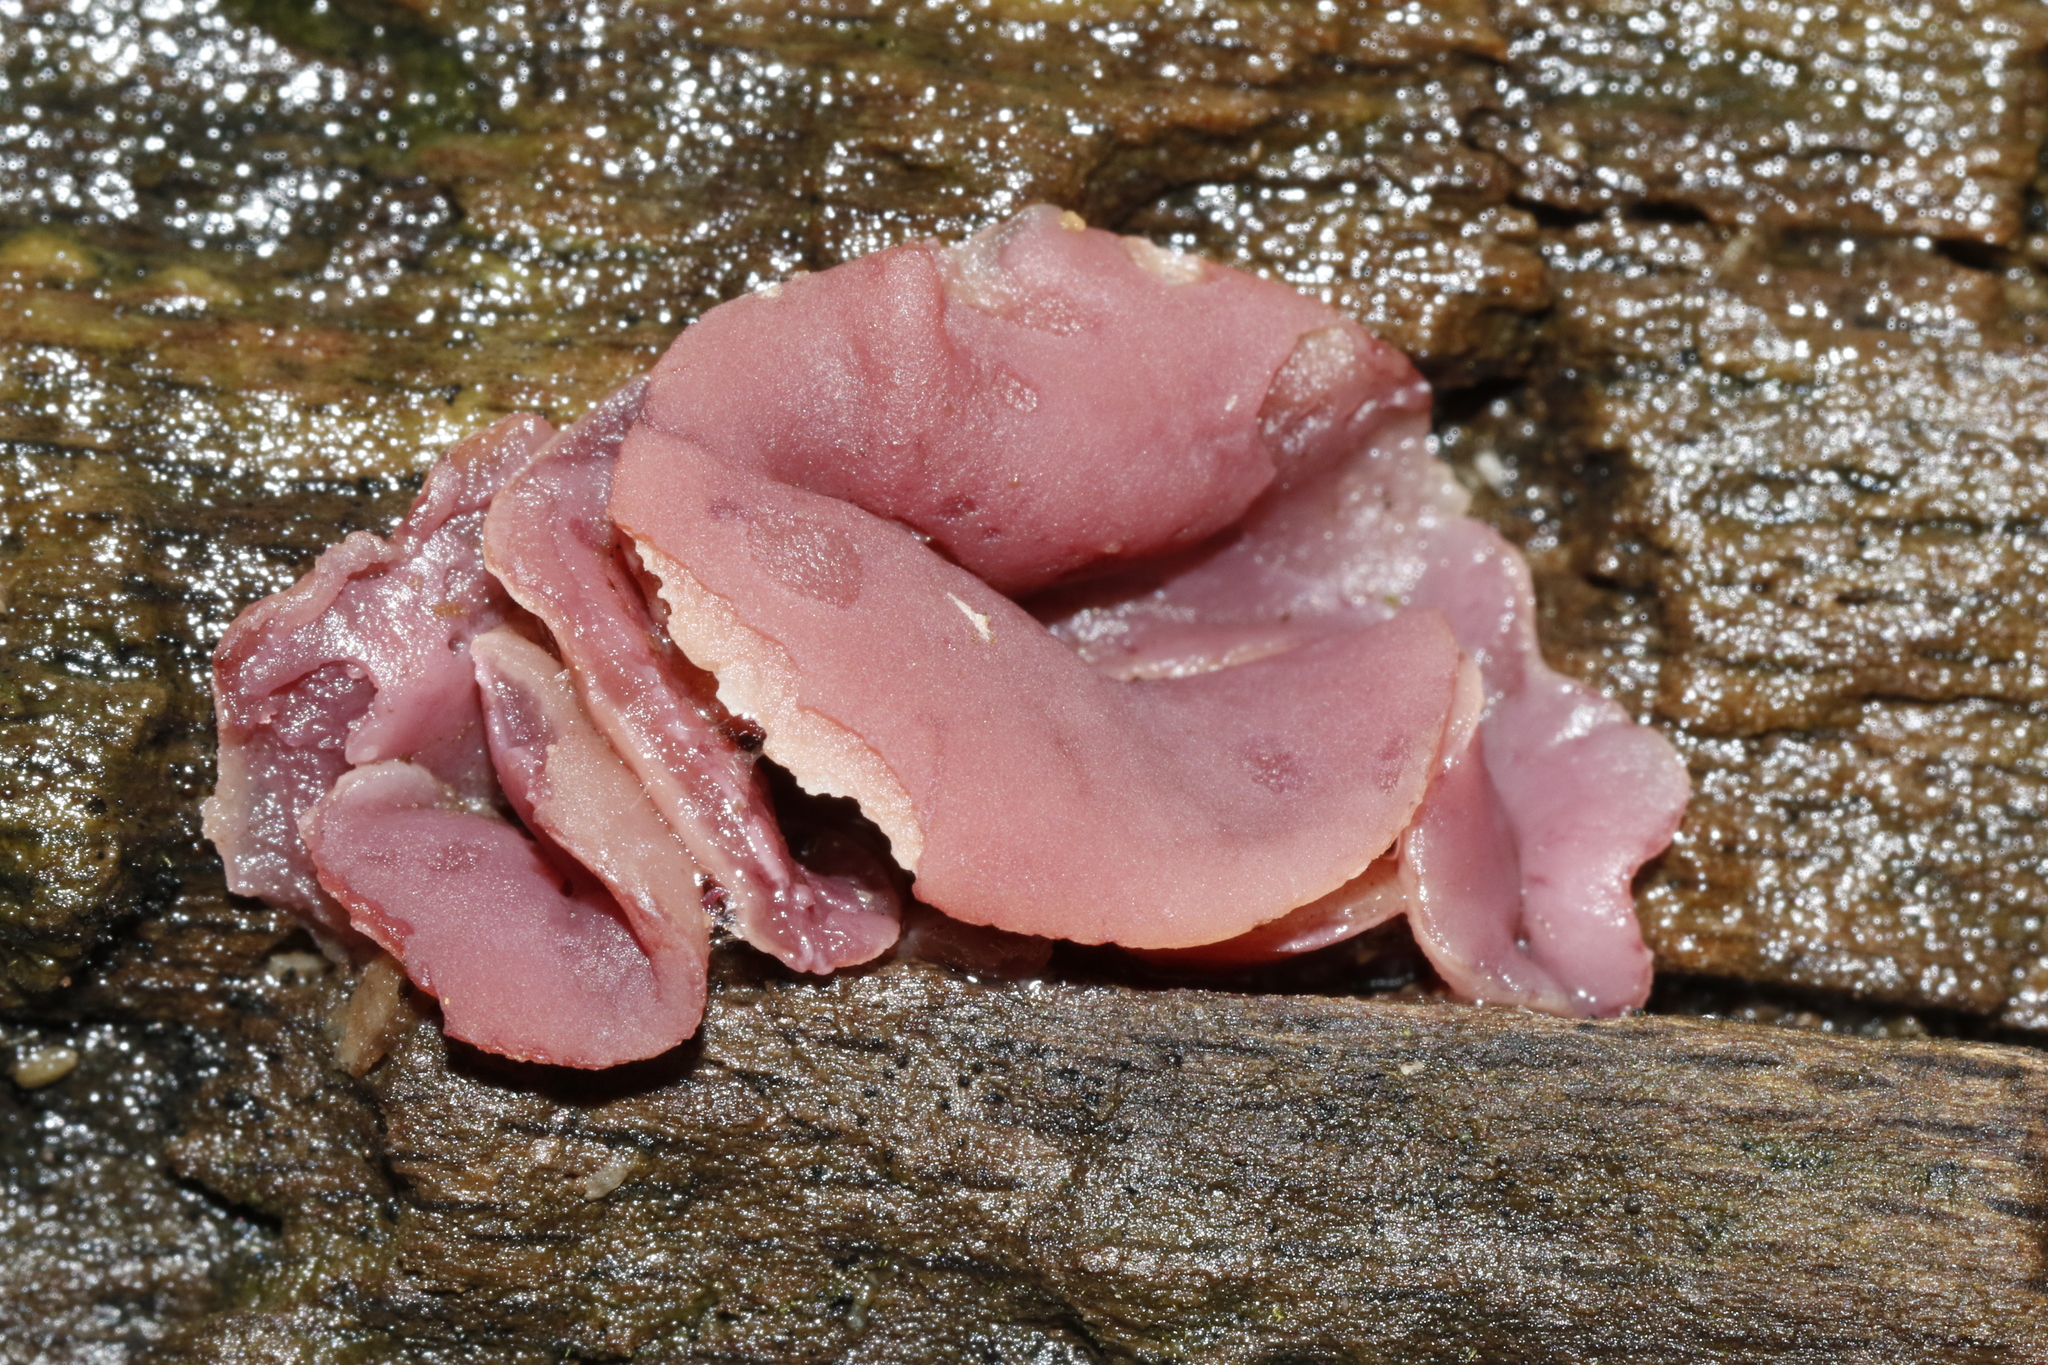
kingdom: Fungi
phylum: Ascomycota
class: Leotiomycetes
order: Helotiales
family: Gelatinodiscaceae
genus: Ascocoryne
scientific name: Ascocoryne cylichnium
